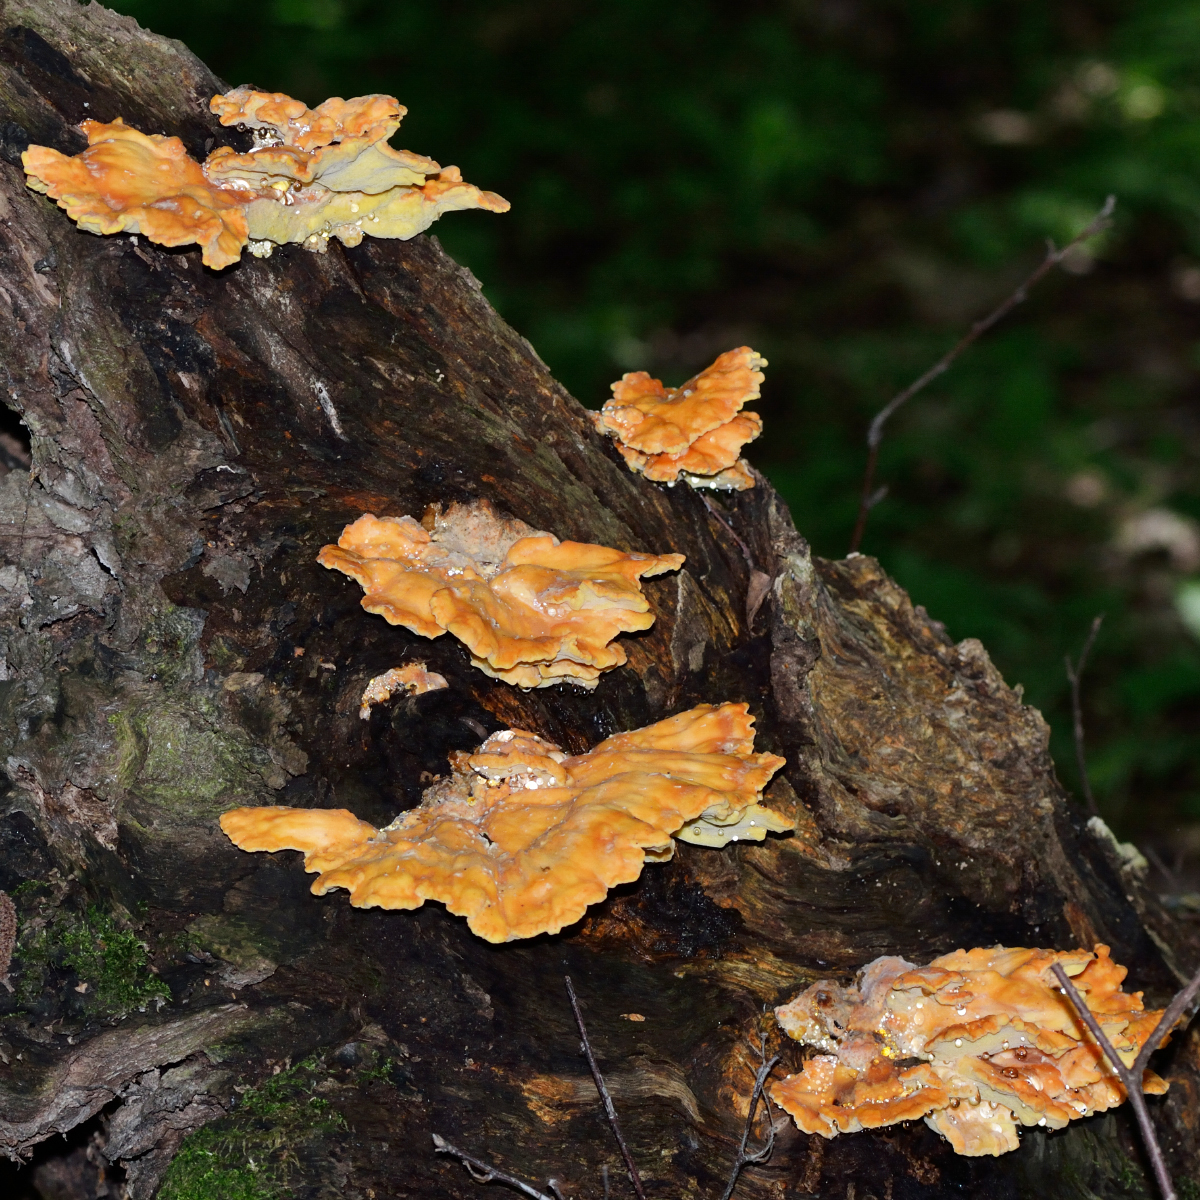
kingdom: Fungi
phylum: Basidiomycota
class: Agaricomycetes
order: Polyporales
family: Laetiporaceae
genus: Laetiporus
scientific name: Laetiporus sulphureus
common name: Chicken of the woods
